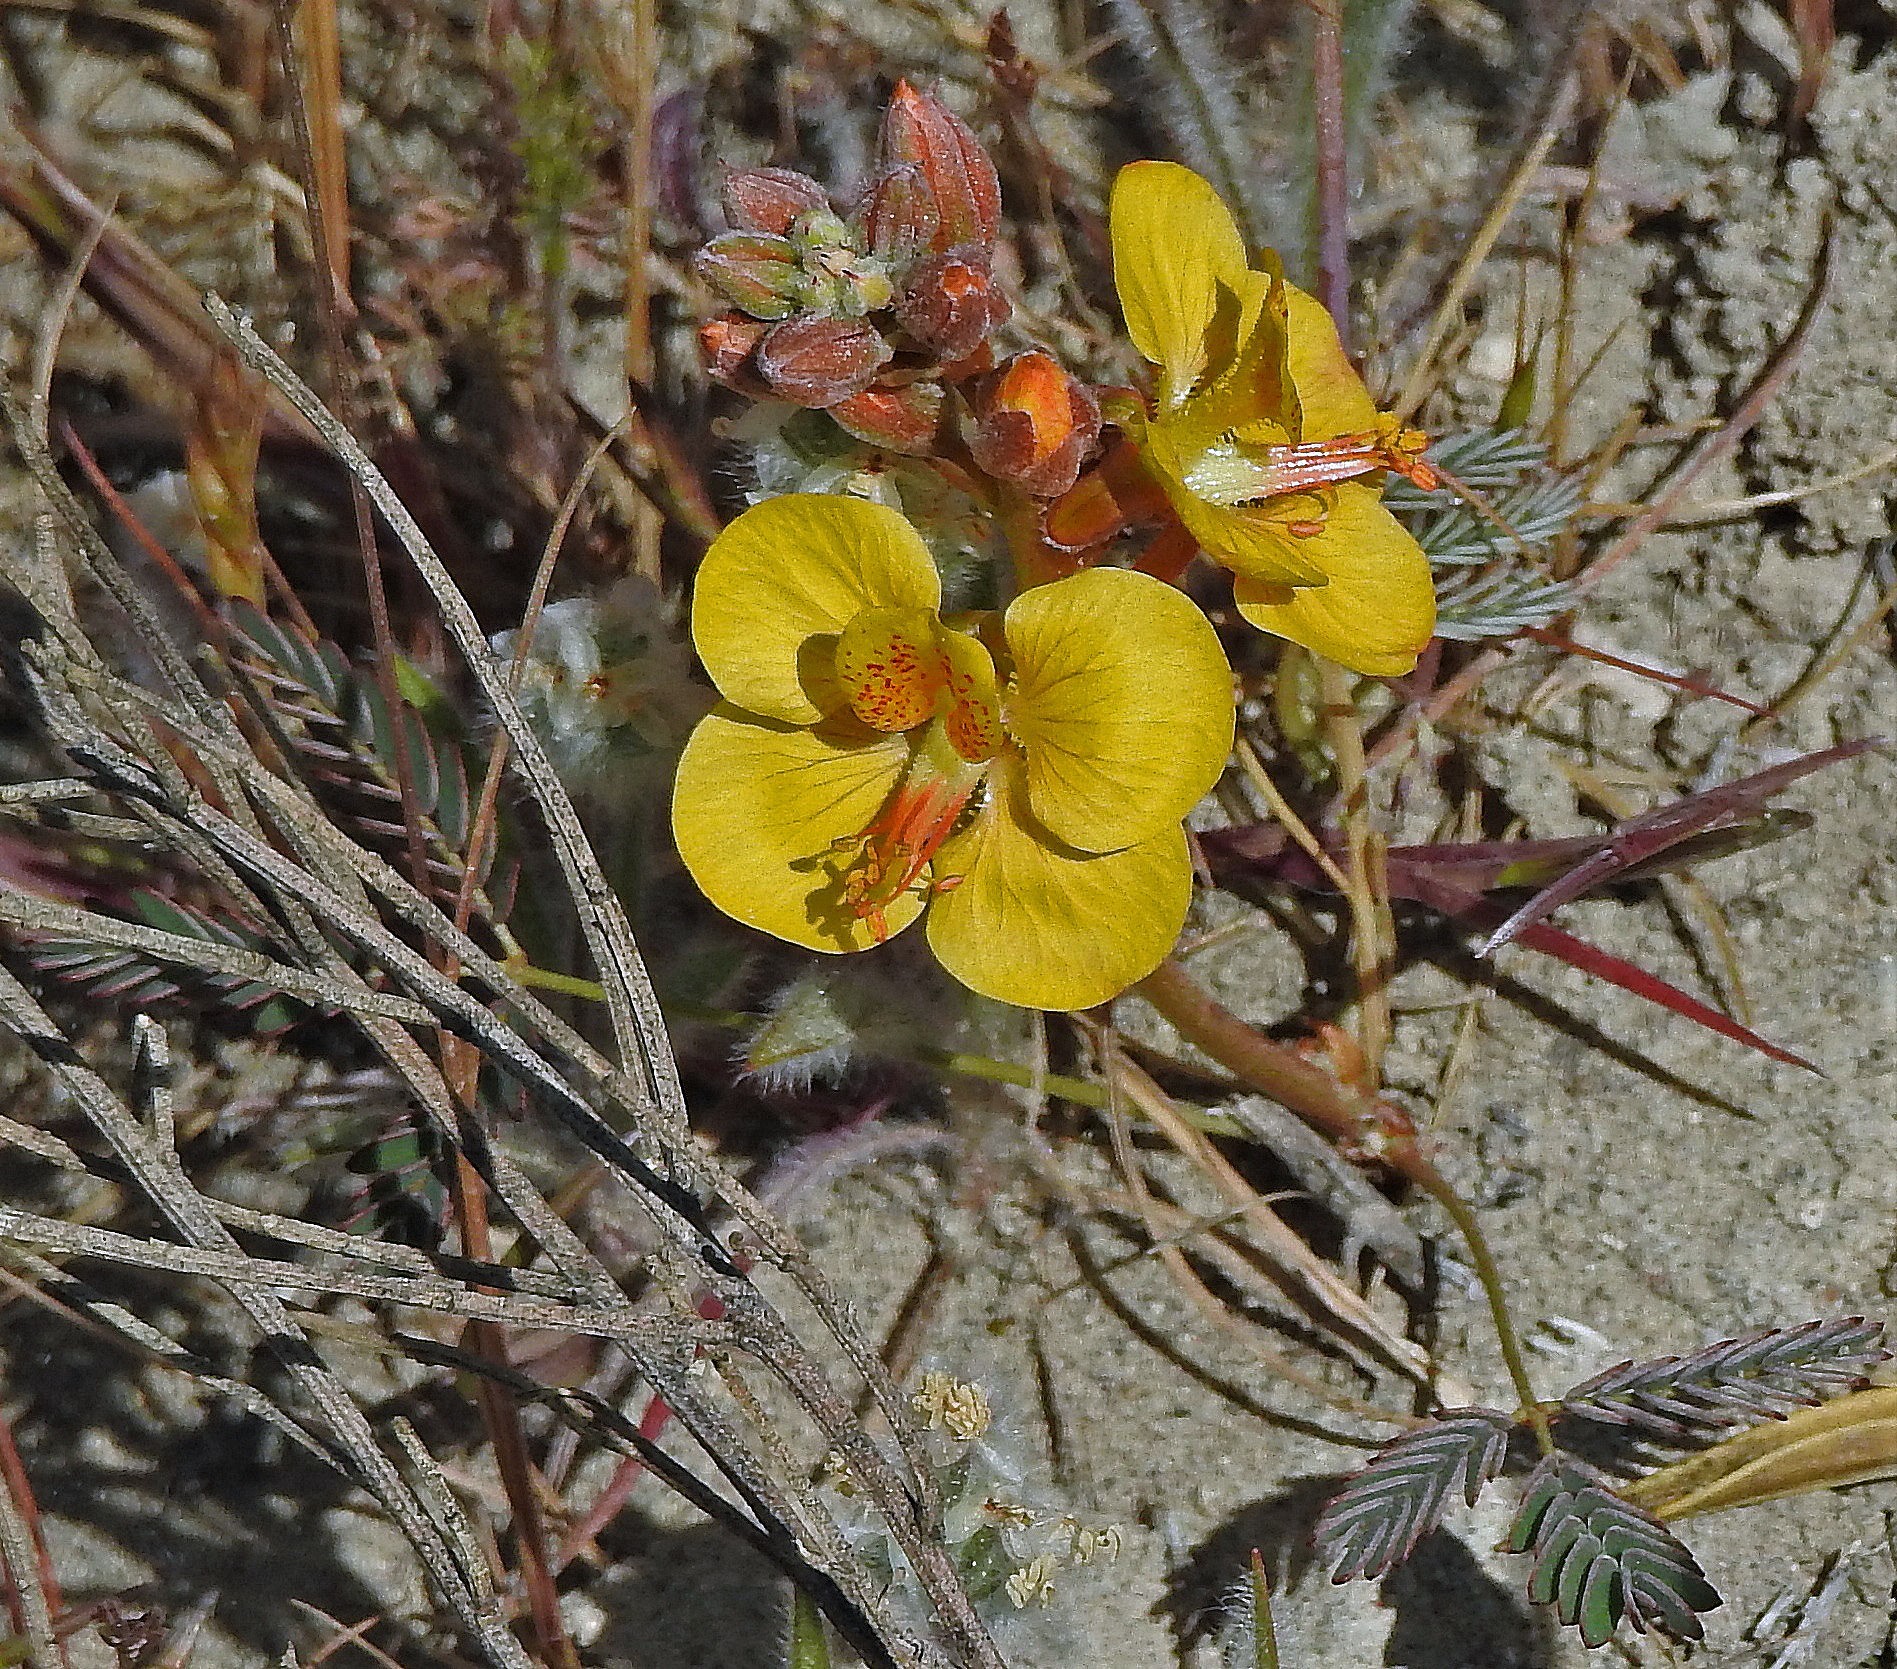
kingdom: Plantae
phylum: Tracheophyta
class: Magnoliopsida
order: Fabales
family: Fabaceae
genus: Hoffmannseggia
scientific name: Hoffmannseggia trifoliata
